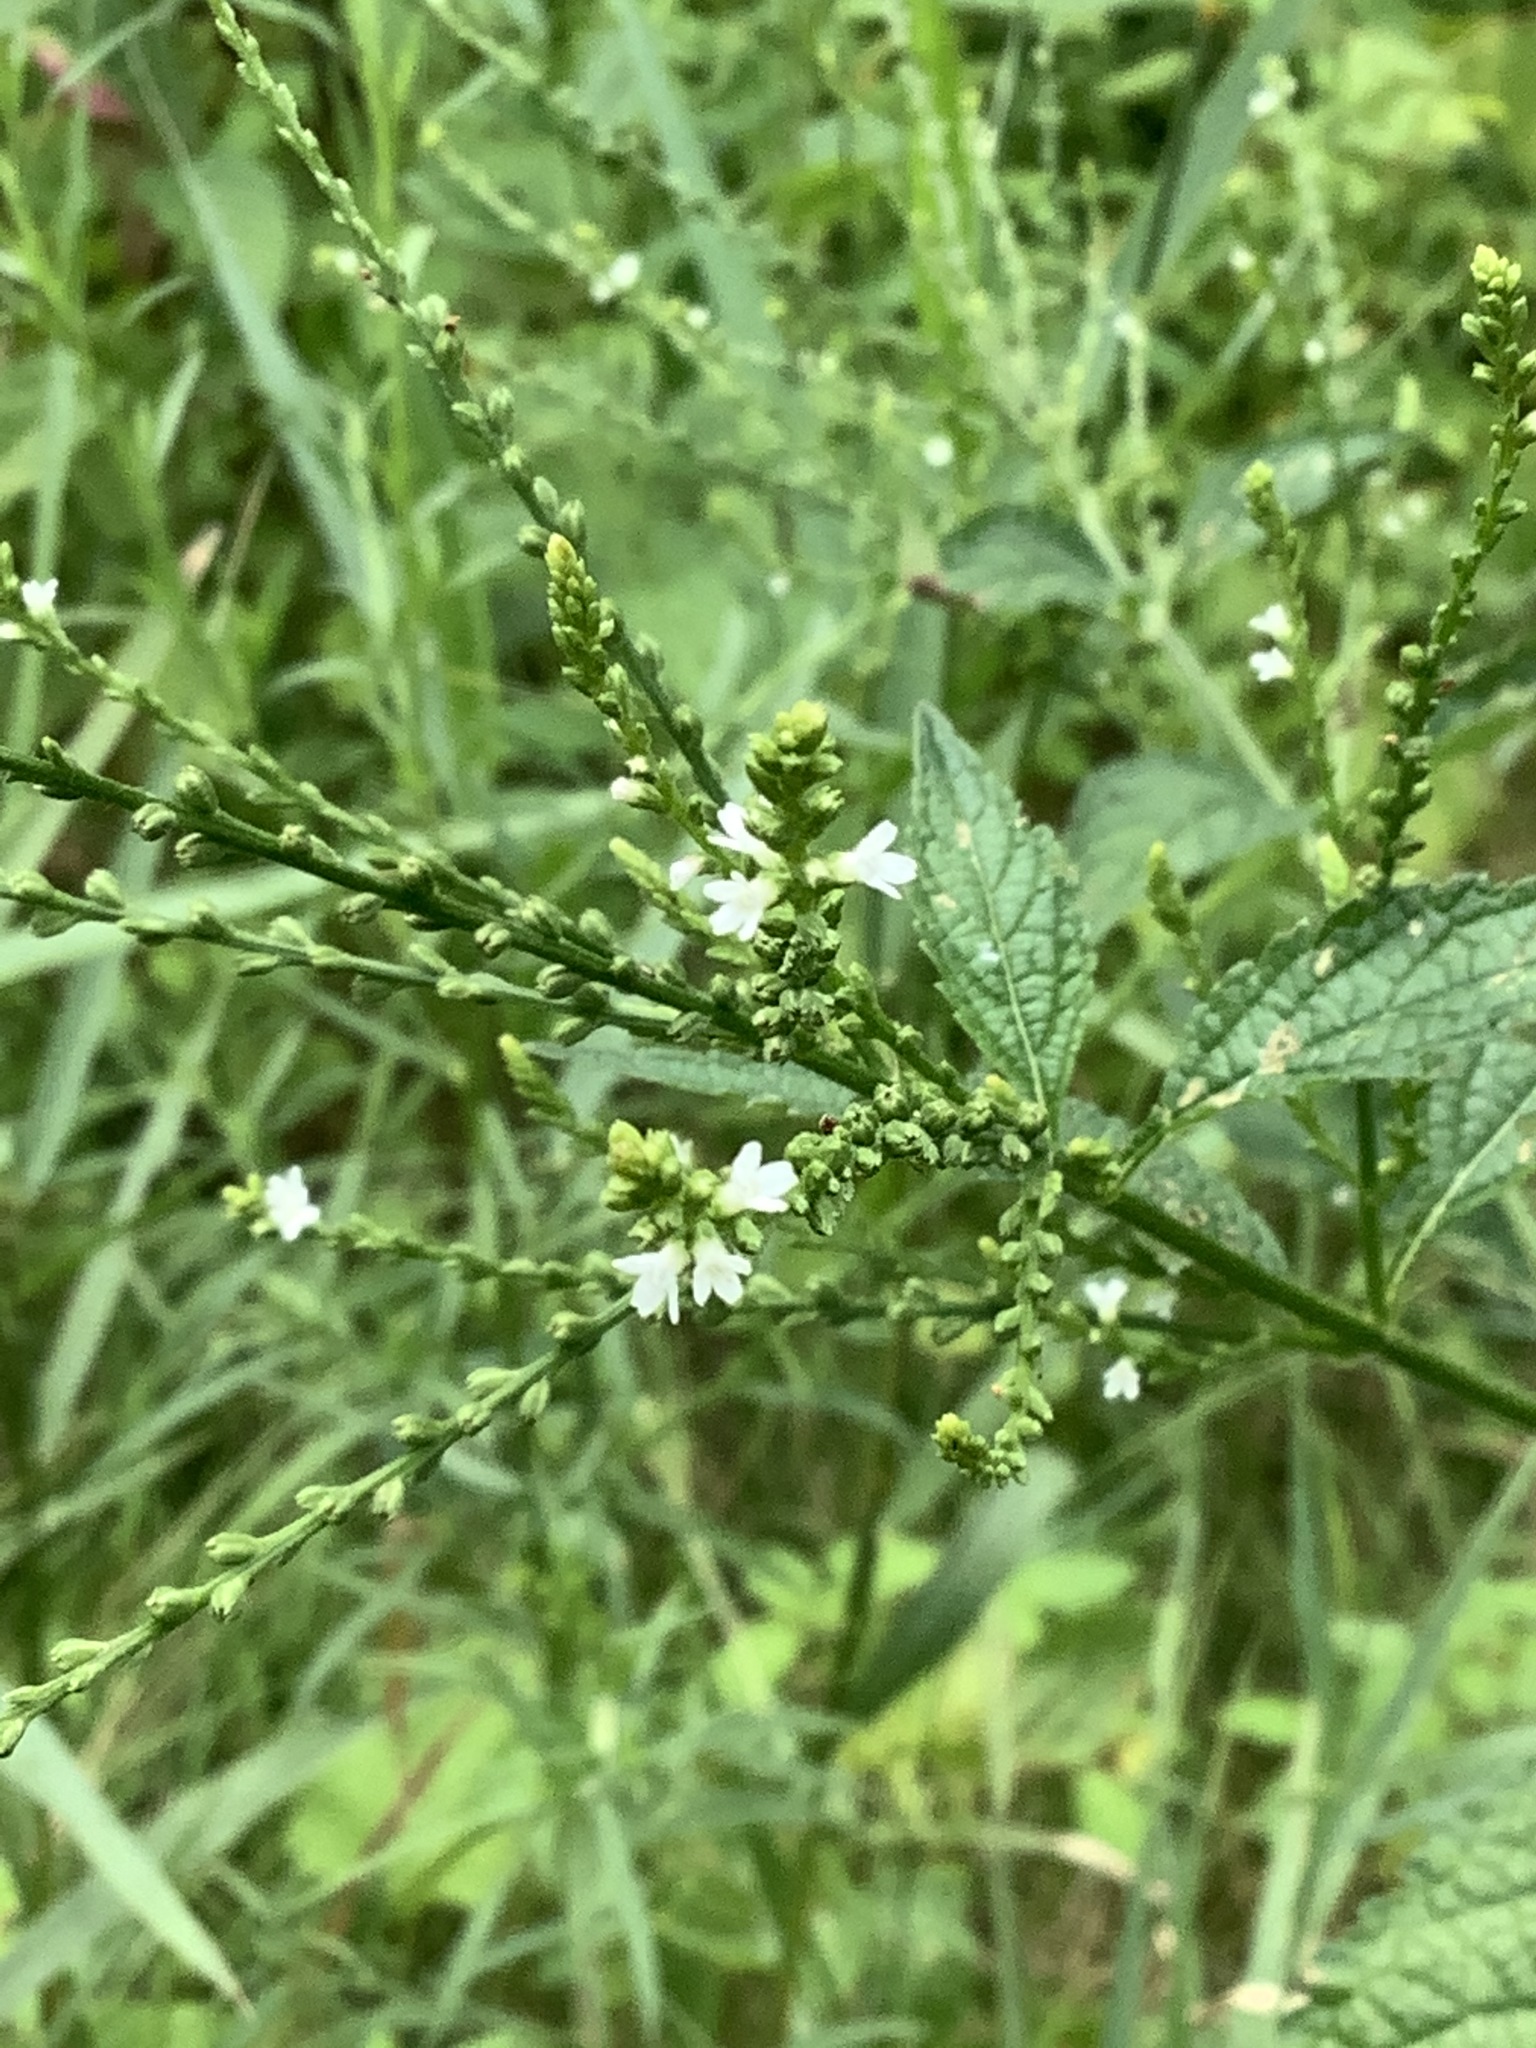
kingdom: Plantae
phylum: Tracheophyta
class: Magnoliopsida
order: Lamiales
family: Verbenaceae
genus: Verbena
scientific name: Verbena urticifolia
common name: Nettle-leaved vervain
